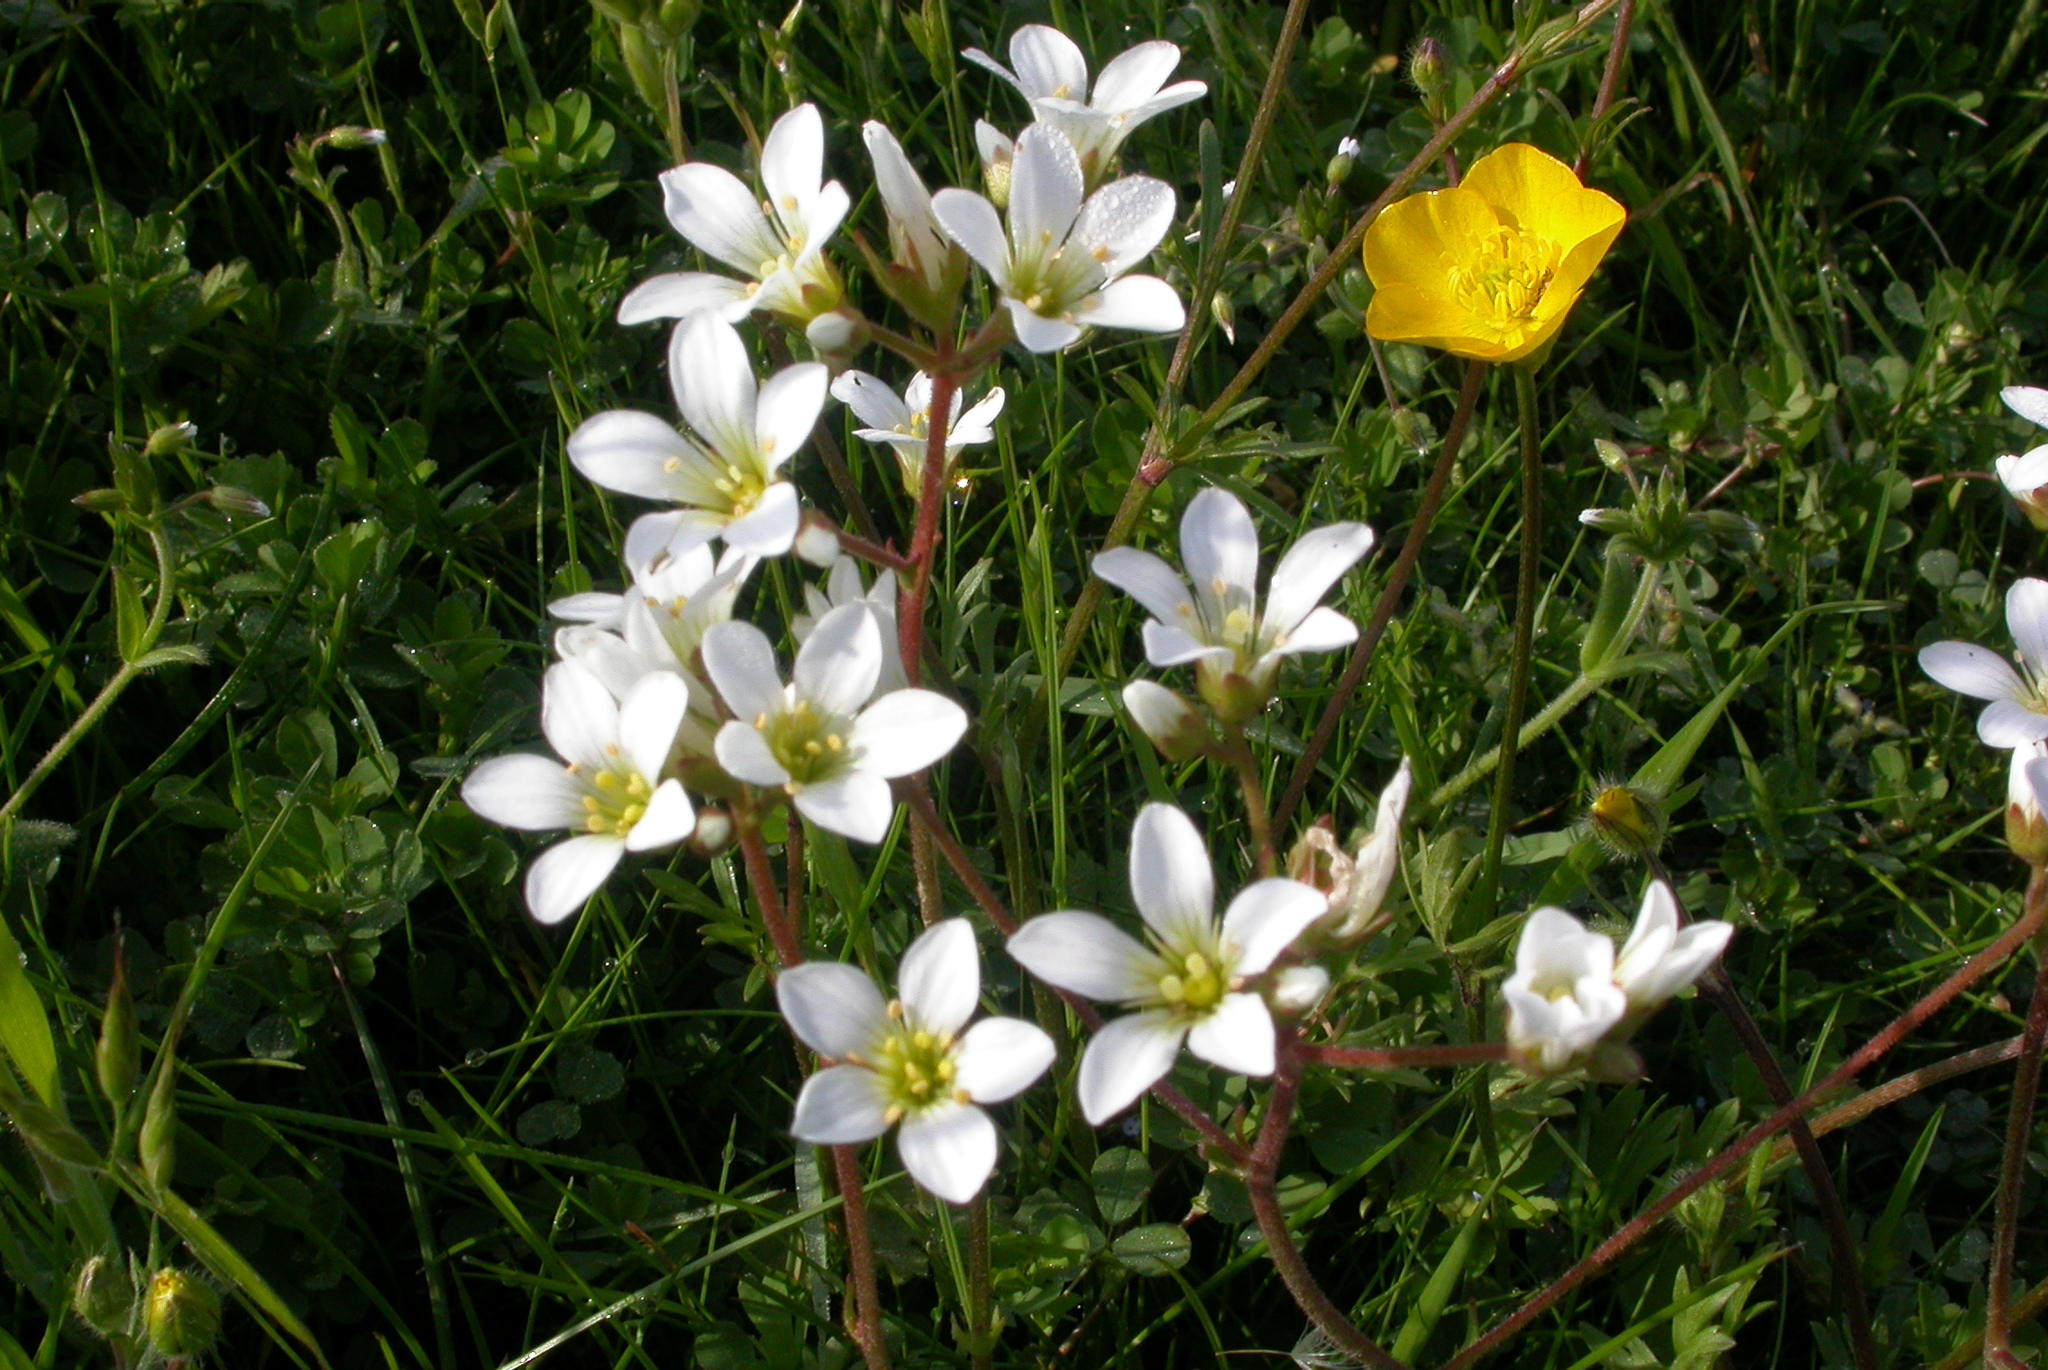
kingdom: Plantae
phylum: Tracheophyta
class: Magnoliopsida
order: Saxifragales
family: Saxifragaceae
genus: Saxifraga
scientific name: Saxifraga granulata
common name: Meadow saxifrage
